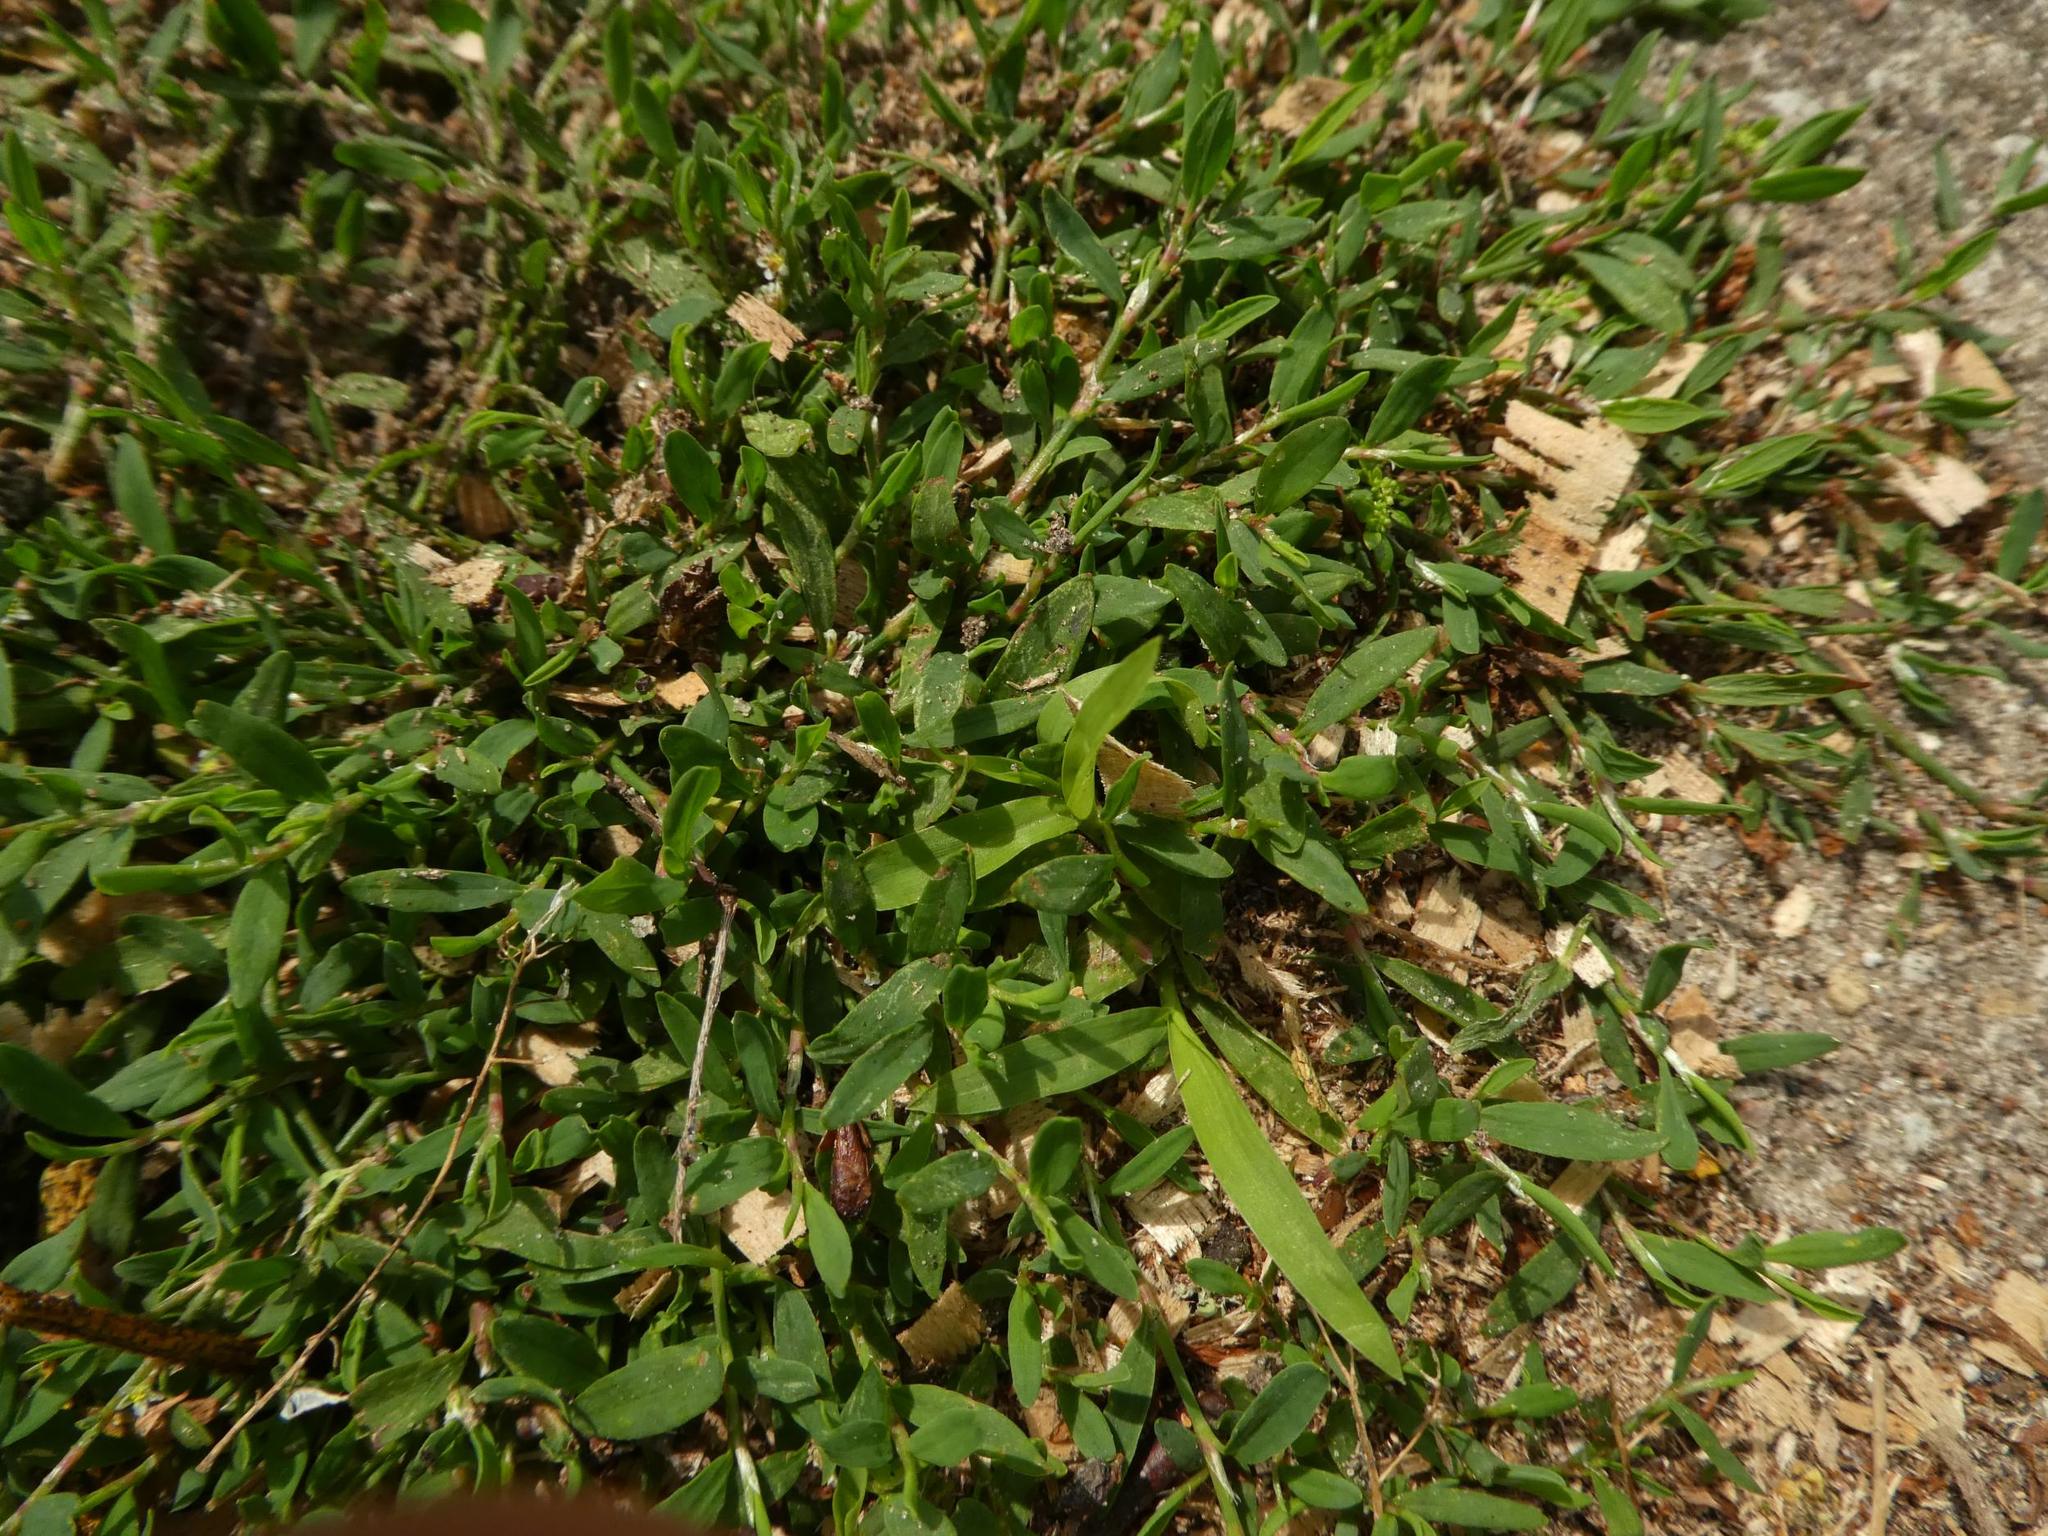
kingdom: Plantae
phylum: Tracheophyta
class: Magnoliopsida
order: Caryophyllales
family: Polygonaceae
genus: Polygonum
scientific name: Polygonum aviculare
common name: Prostrate knotweed
